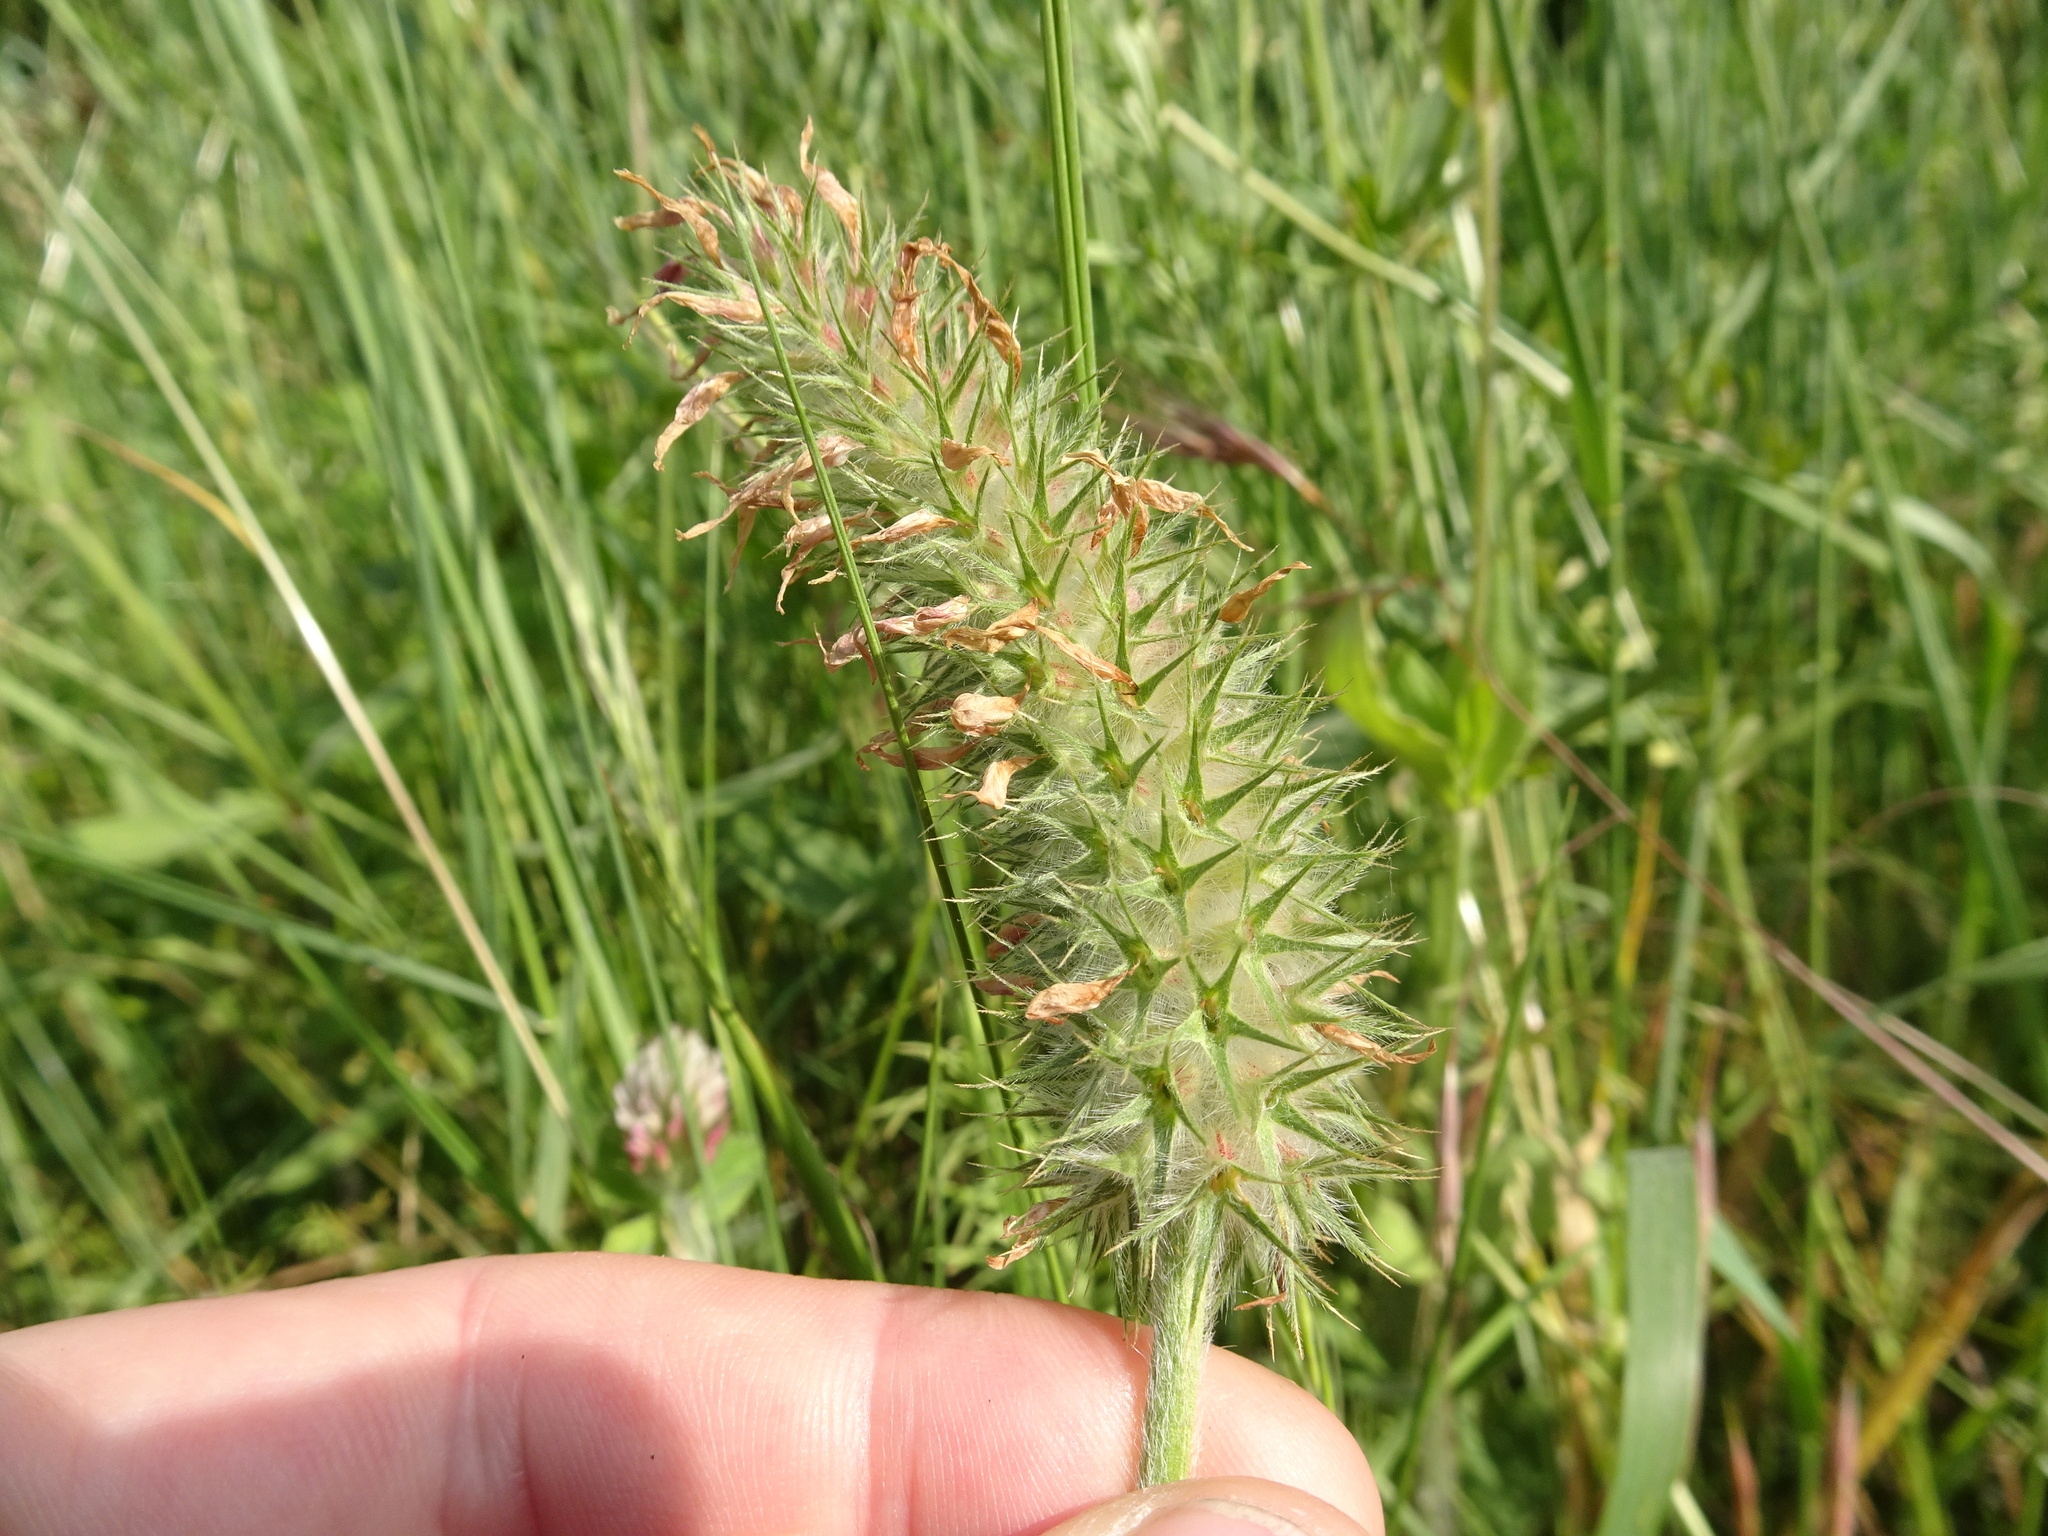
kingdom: Plantae
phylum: Tracheophyta
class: Magnoliopsida
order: Fabales
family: Fabaceae
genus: Trifolium
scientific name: Trifolium incarnatum
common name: Crimson clover
